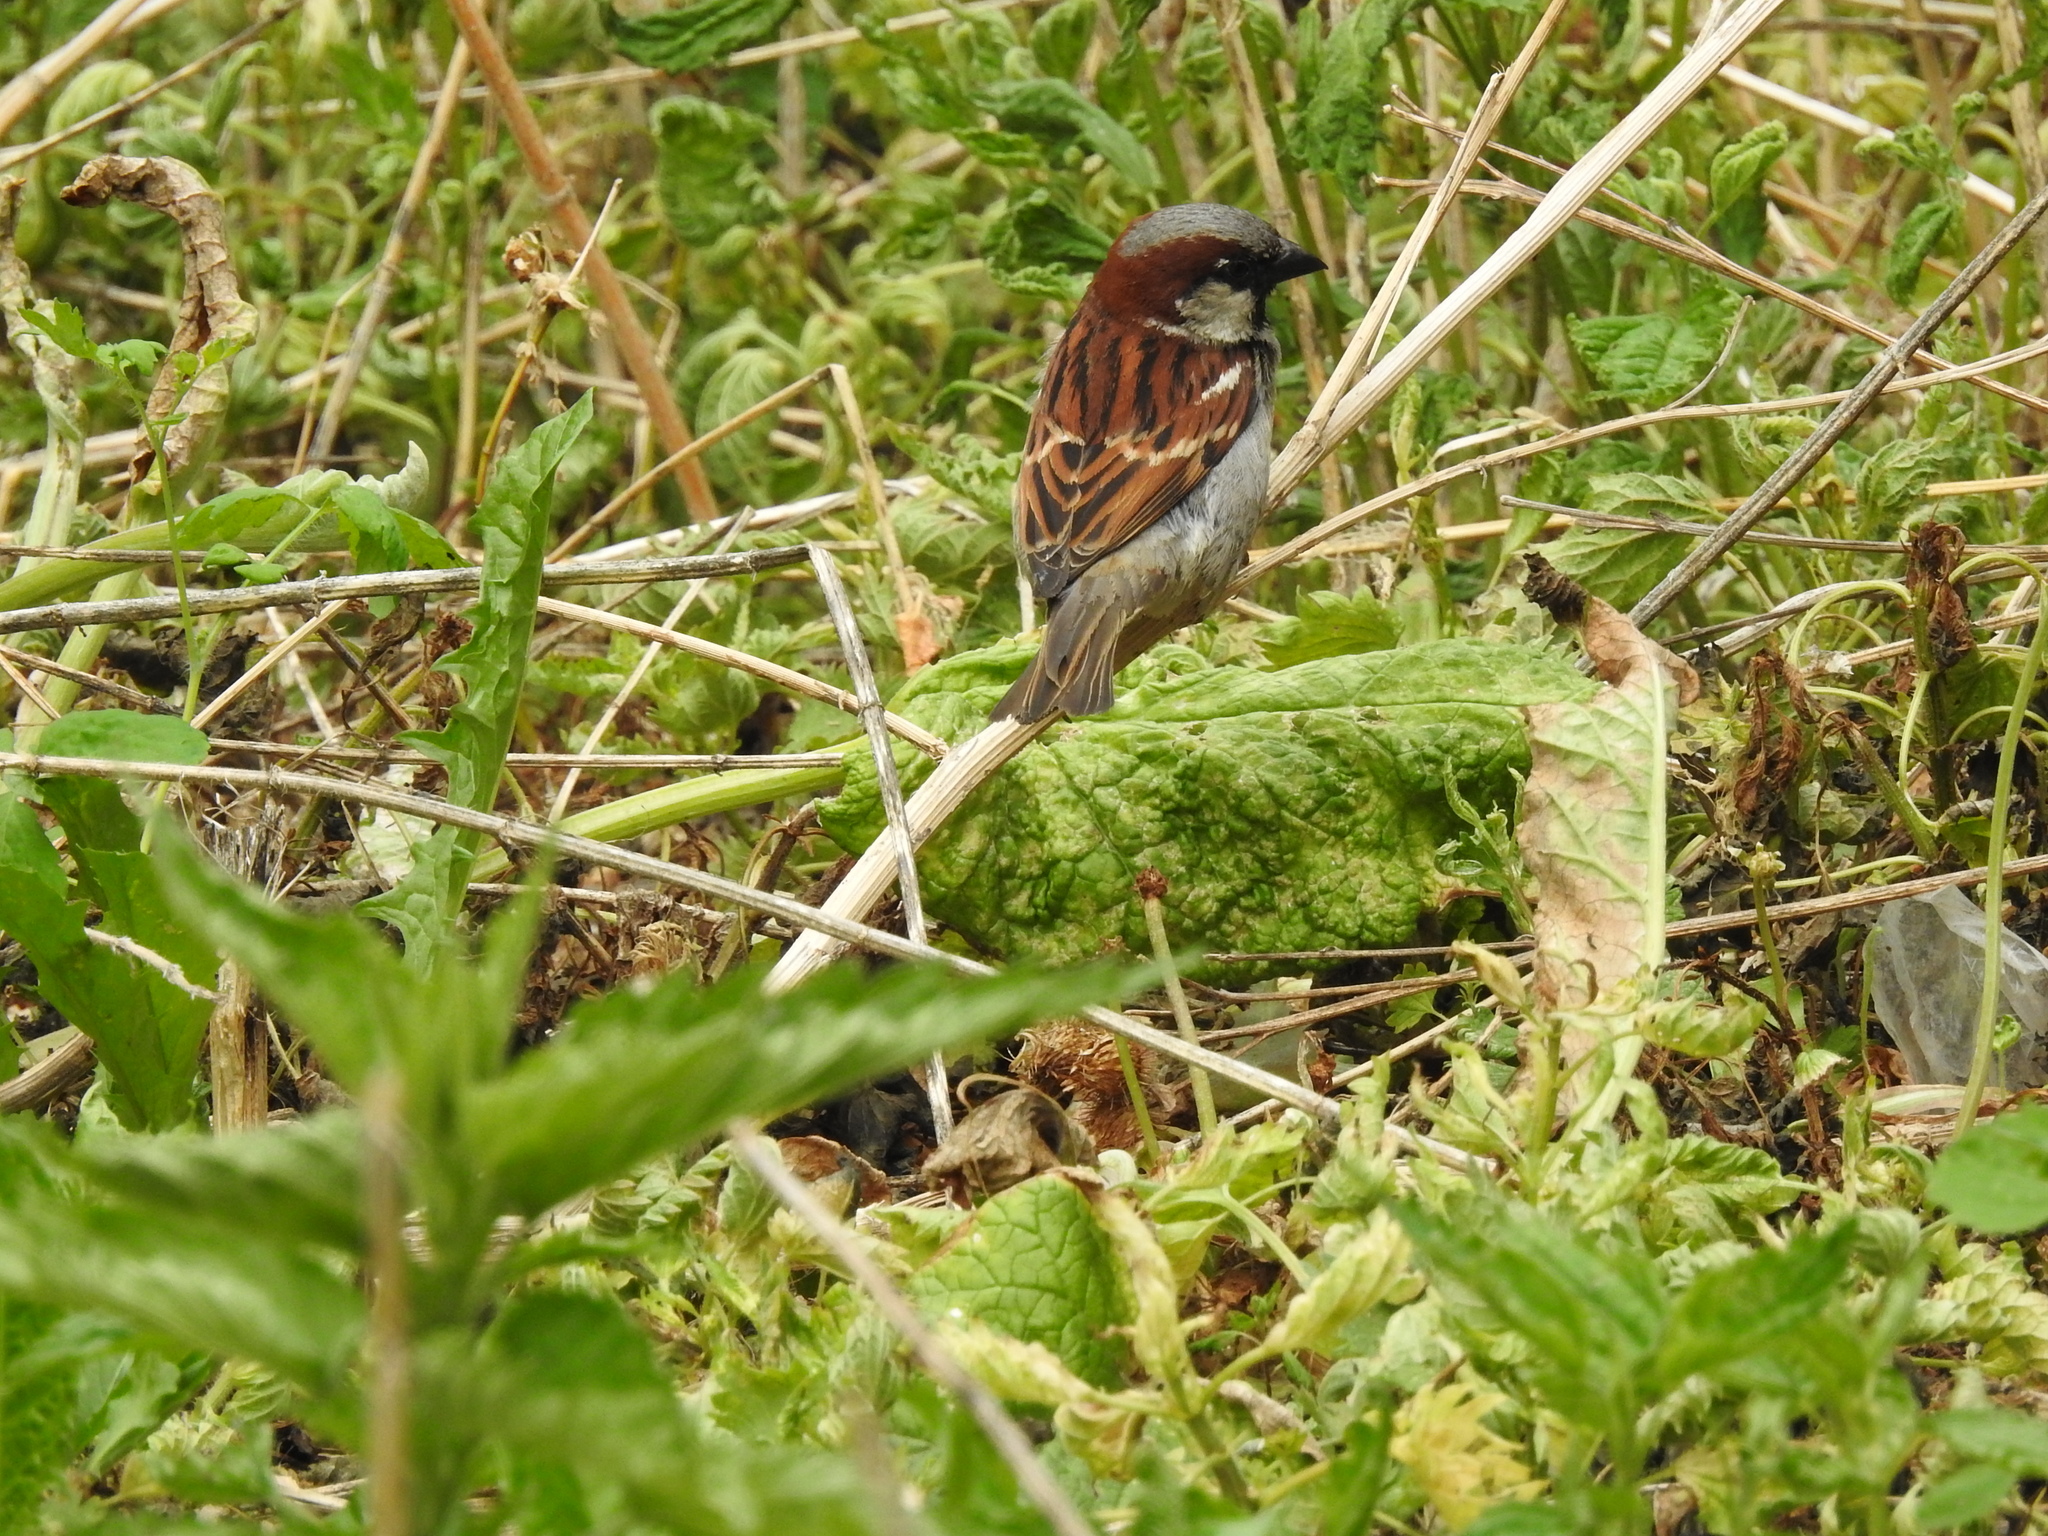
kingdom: Animalia
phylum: Chordata
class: Aves
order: Passeriformes
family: Passeridae
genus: Passer
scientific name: Passer domesticus
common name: House sparrow
